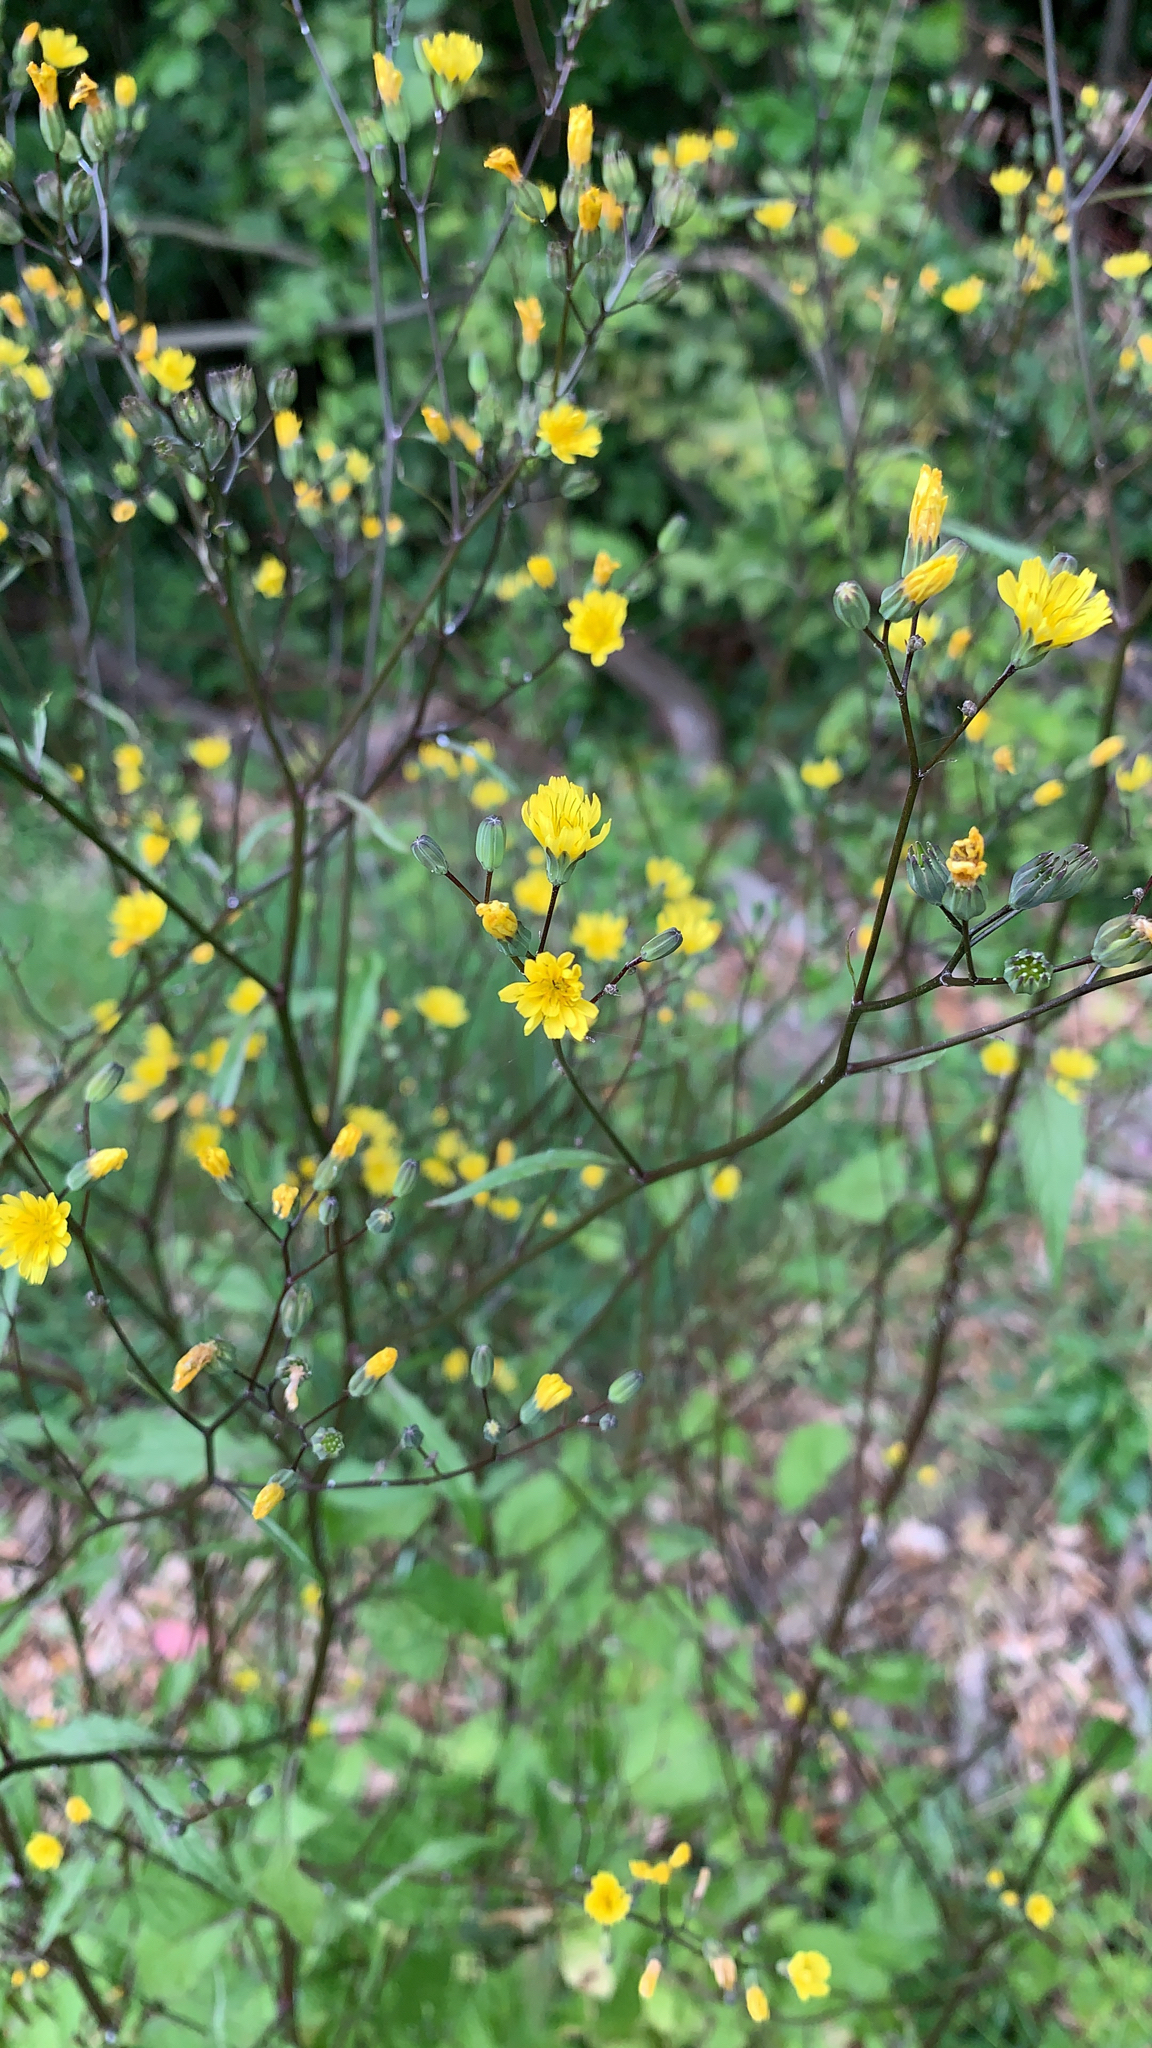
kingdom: Plantae
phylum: Tracheophyta
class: Magnoliopsida
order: Asterales
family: Asteraceae
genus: Lapsana
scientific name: Lapsana communis
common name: Nipplewort
